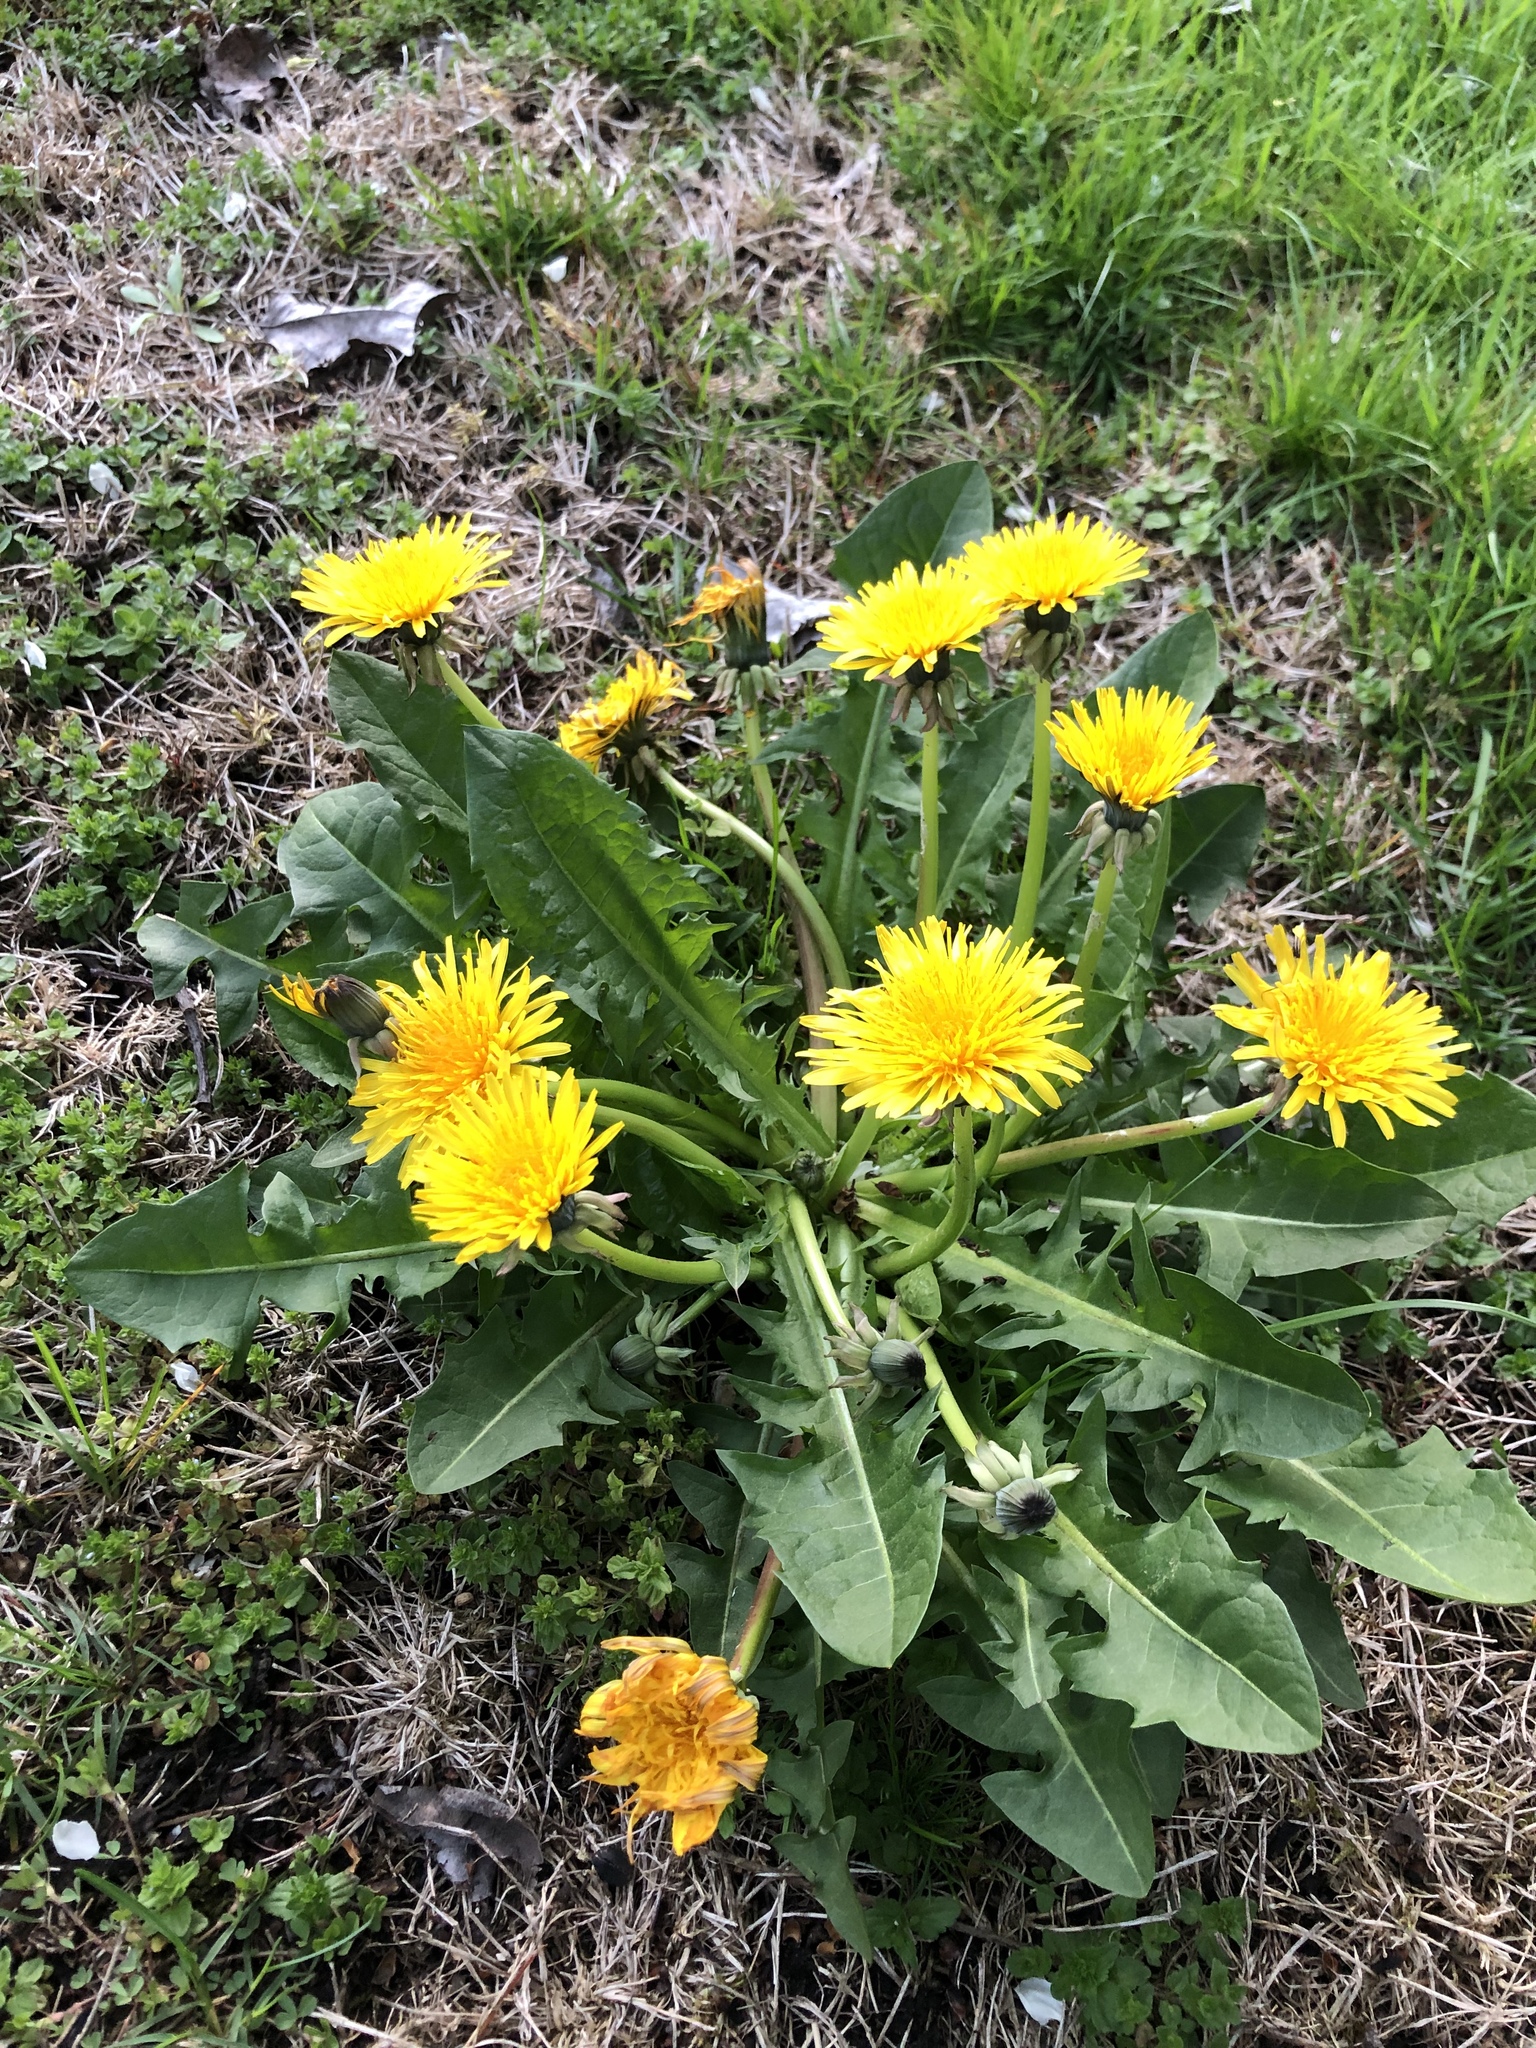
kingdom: Plantae
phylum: Tracheophyta
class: Magnoliopsida
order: Asterales
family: Asteraceae
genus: Taraxacum
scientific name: Taraxacum officinale
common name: Common dandelion
